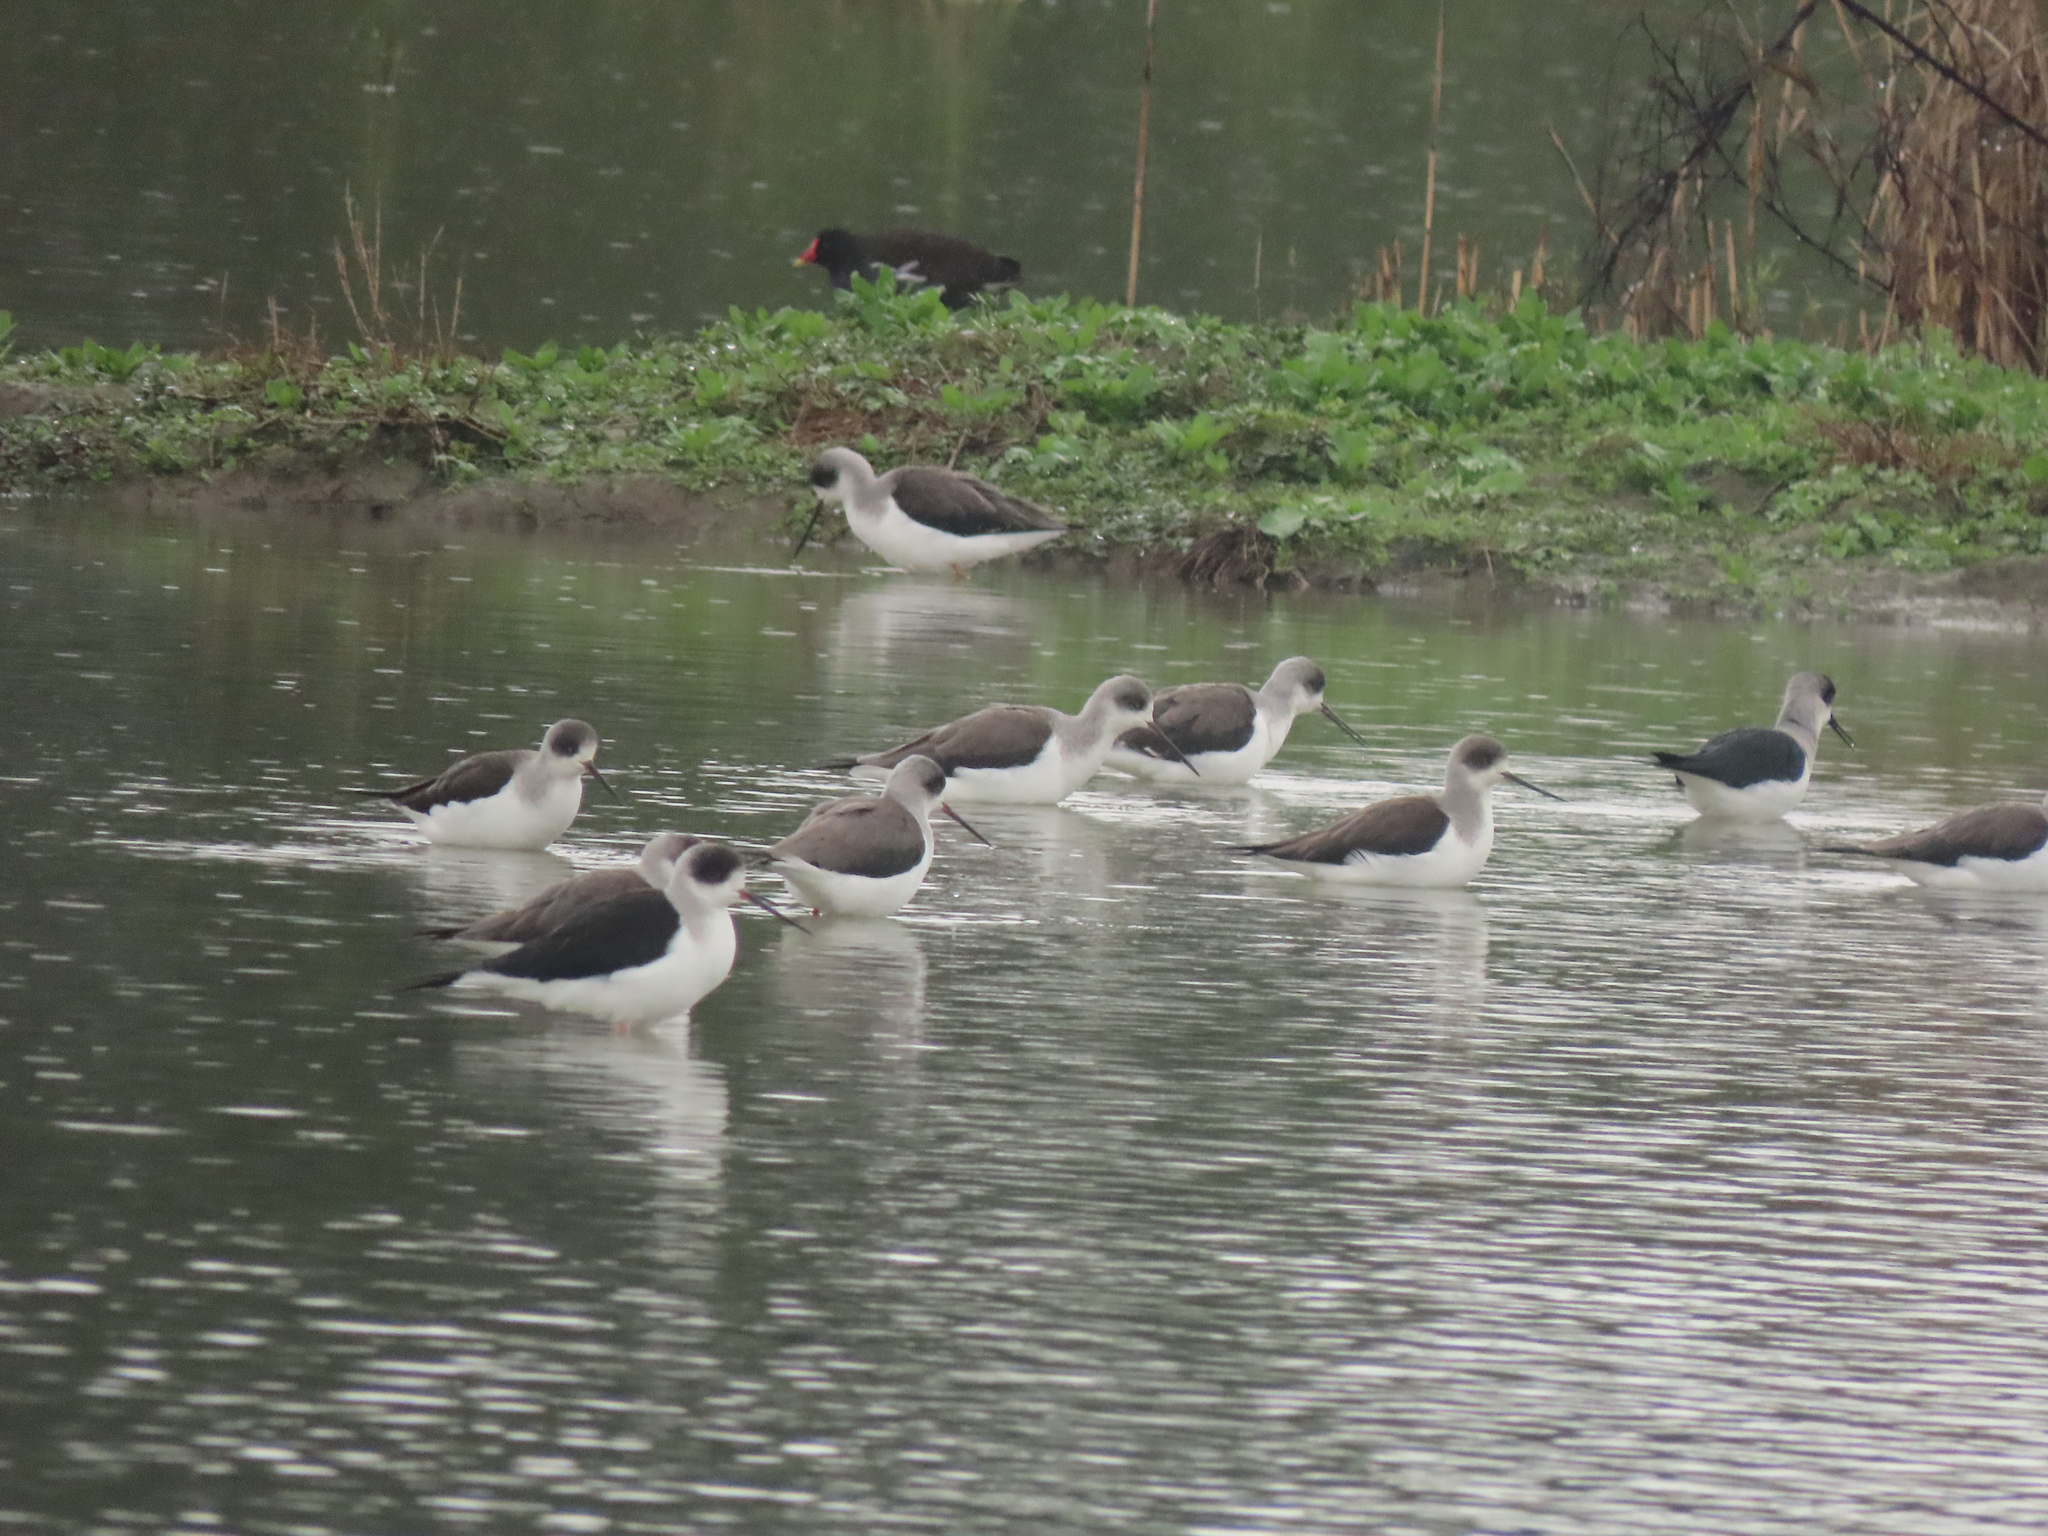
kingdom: Animalia
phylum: Chordata
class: Aves
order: Charadriiformes
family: Recurvirostridae
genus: Himantopus
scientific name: Himantopus himantopus
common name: Black-winged stilt
